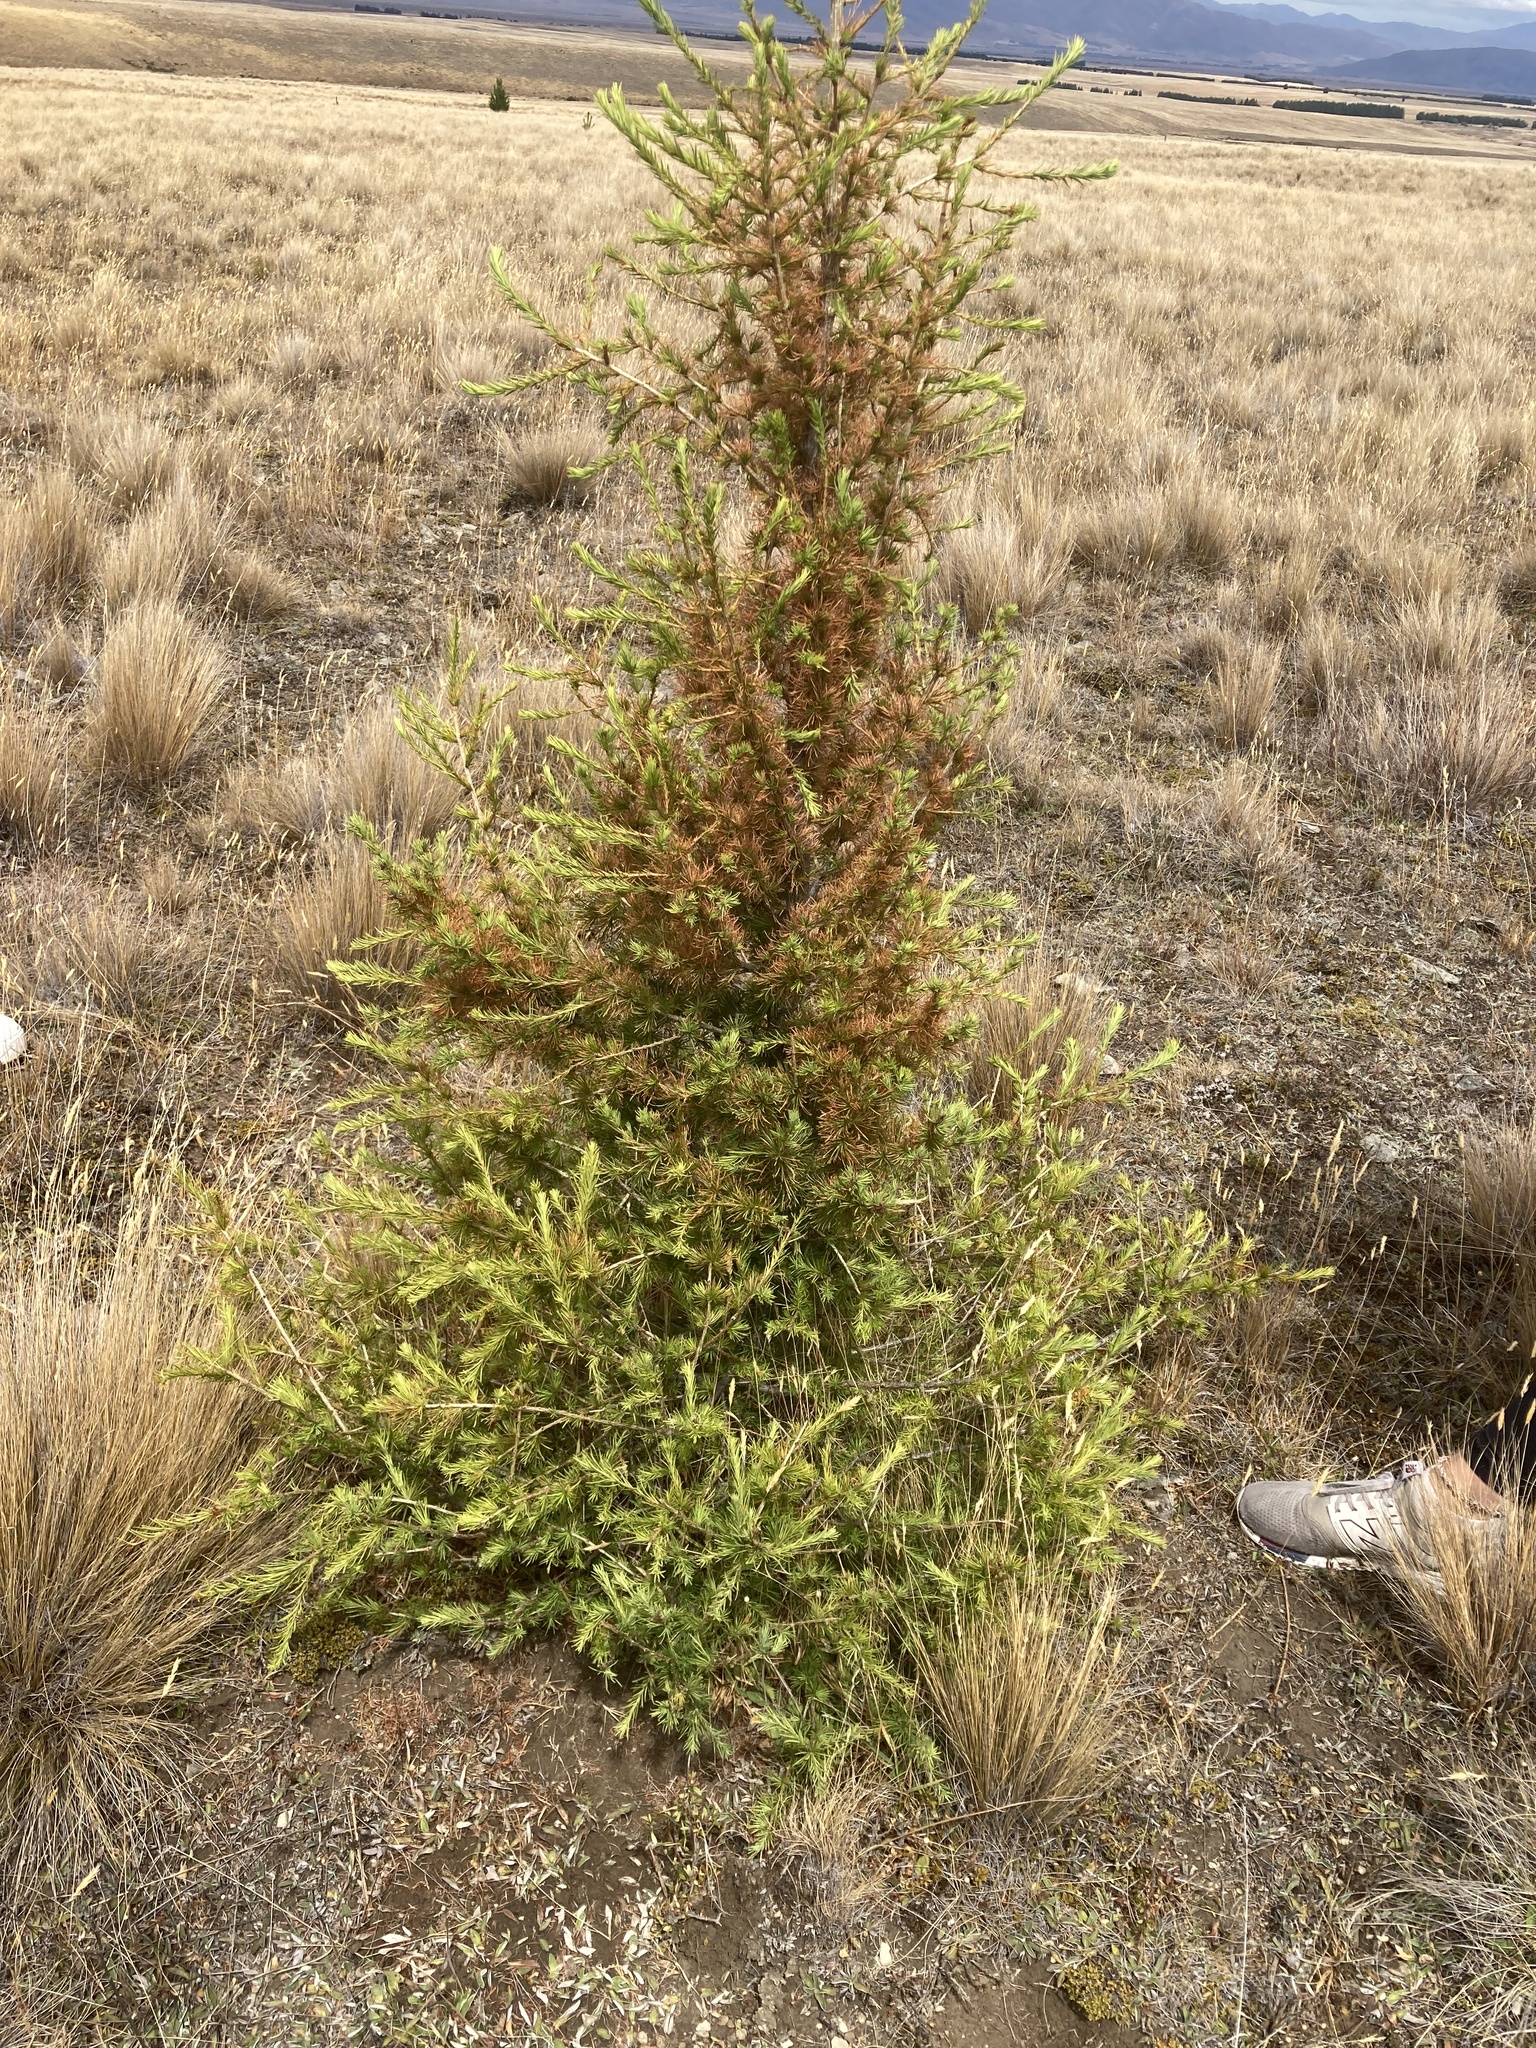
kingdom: Plantae
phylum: Tracheophyta
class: Pinopsida
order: Pinales
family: Pinaceae
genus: Larix
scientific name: Larix decidua
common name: European larch
